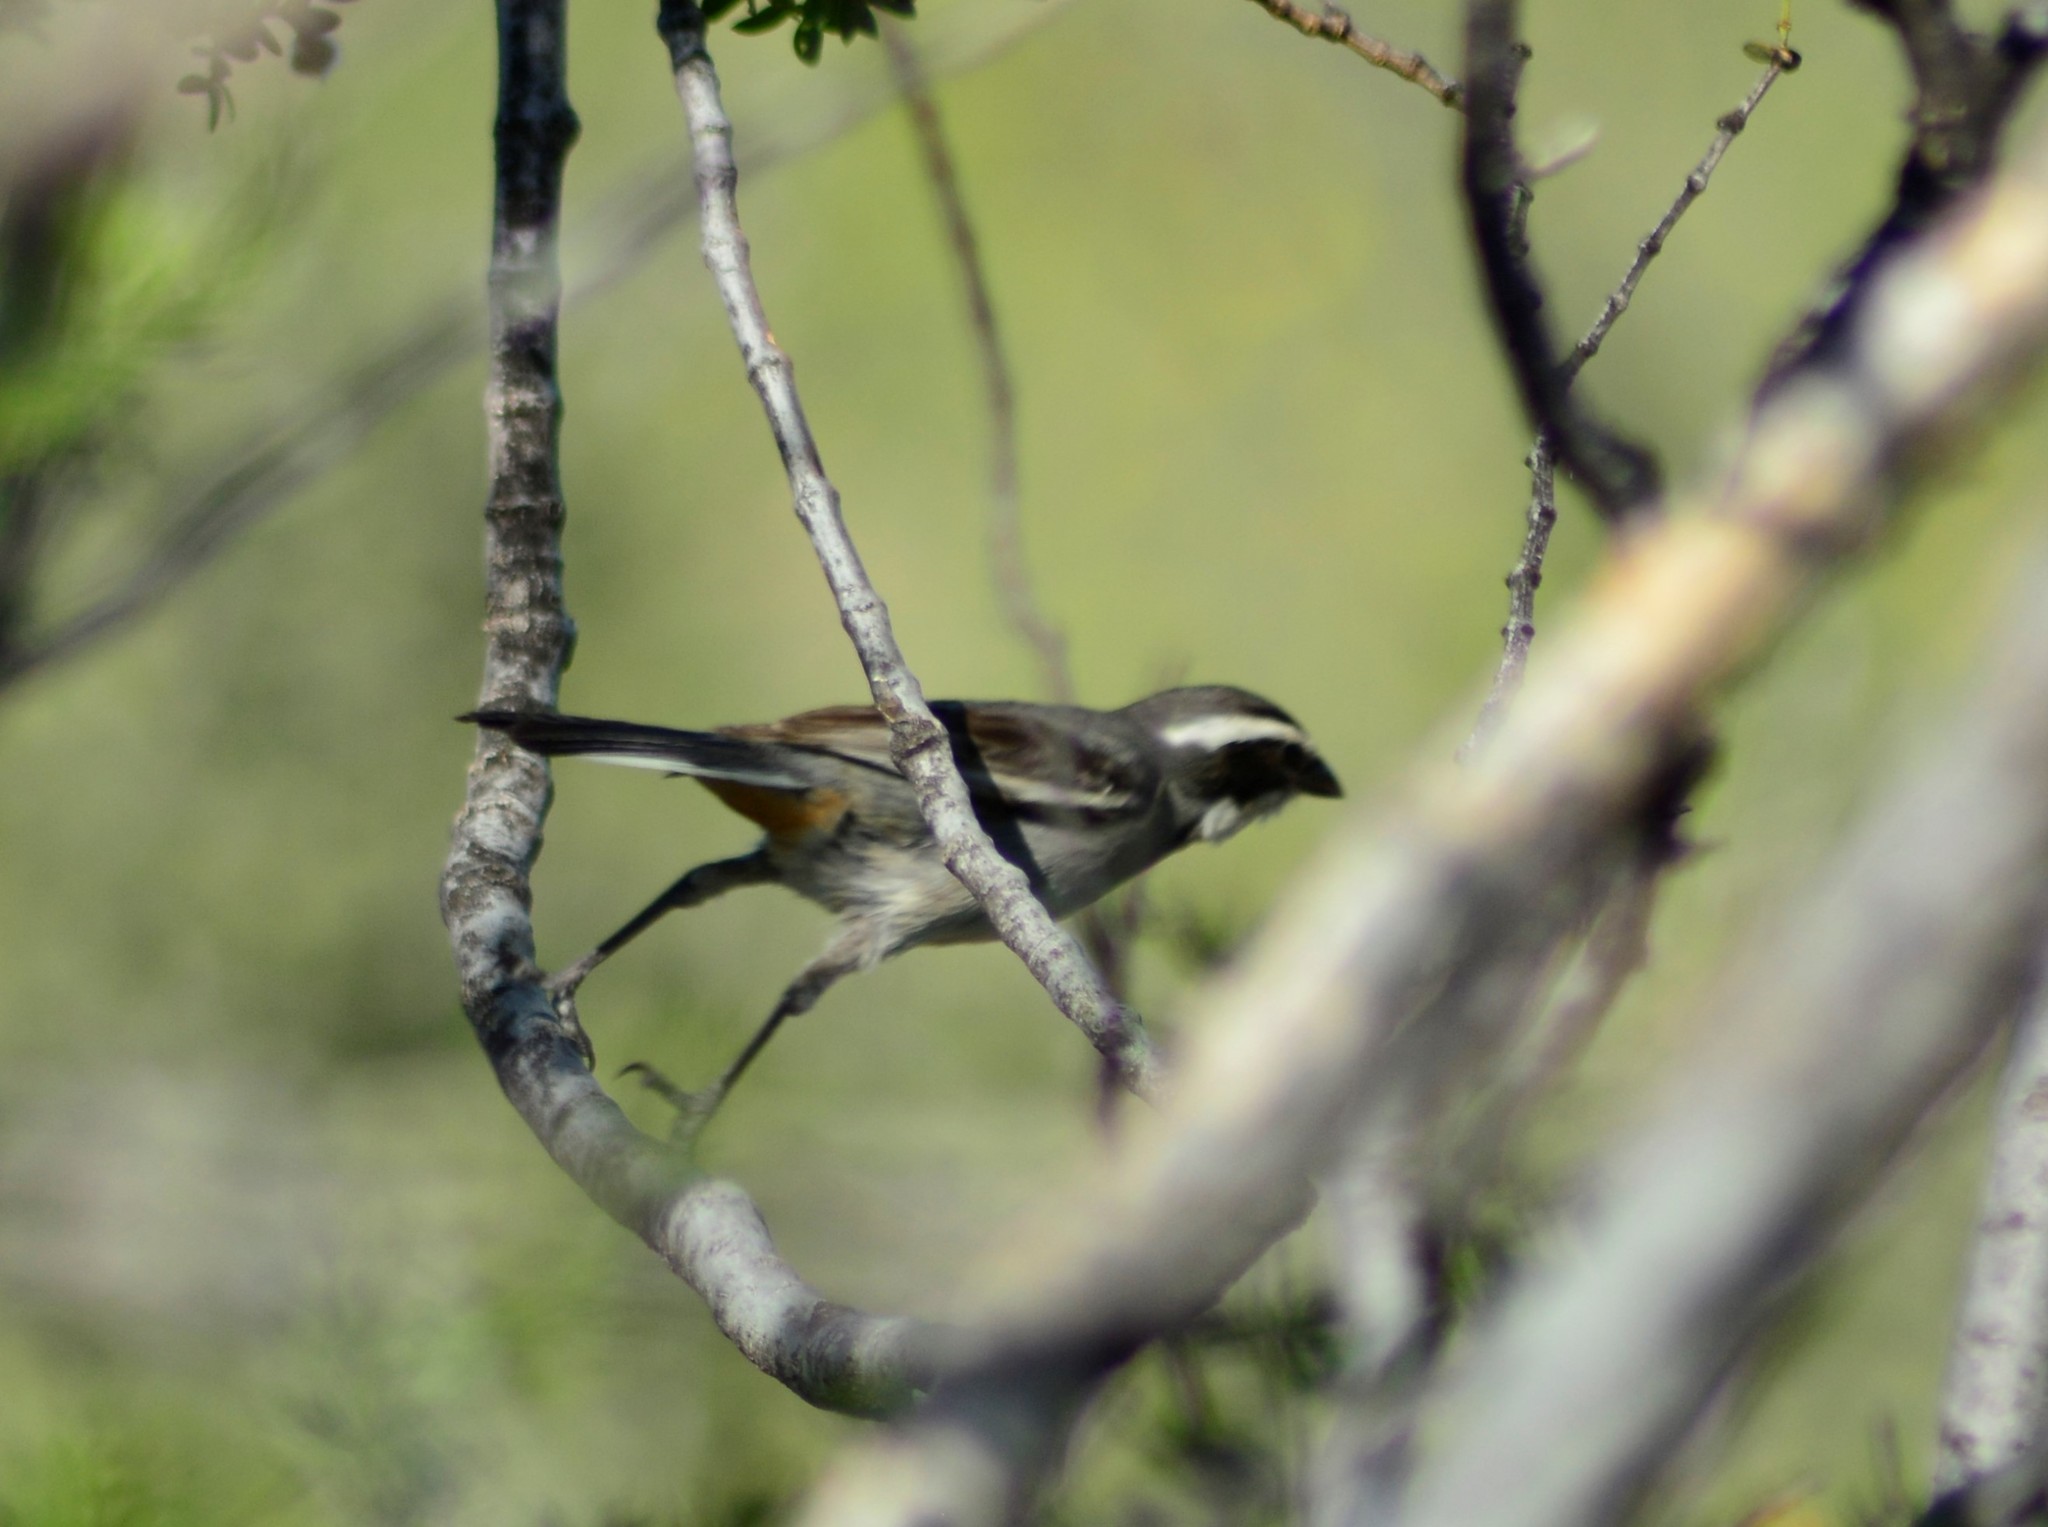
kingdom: Animalia
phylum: Chordata
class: Aves
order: Passeriformes
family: Thraupidae
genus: Microspingus
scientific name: Microspingus torquatus
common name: Ringed warbling-finch
